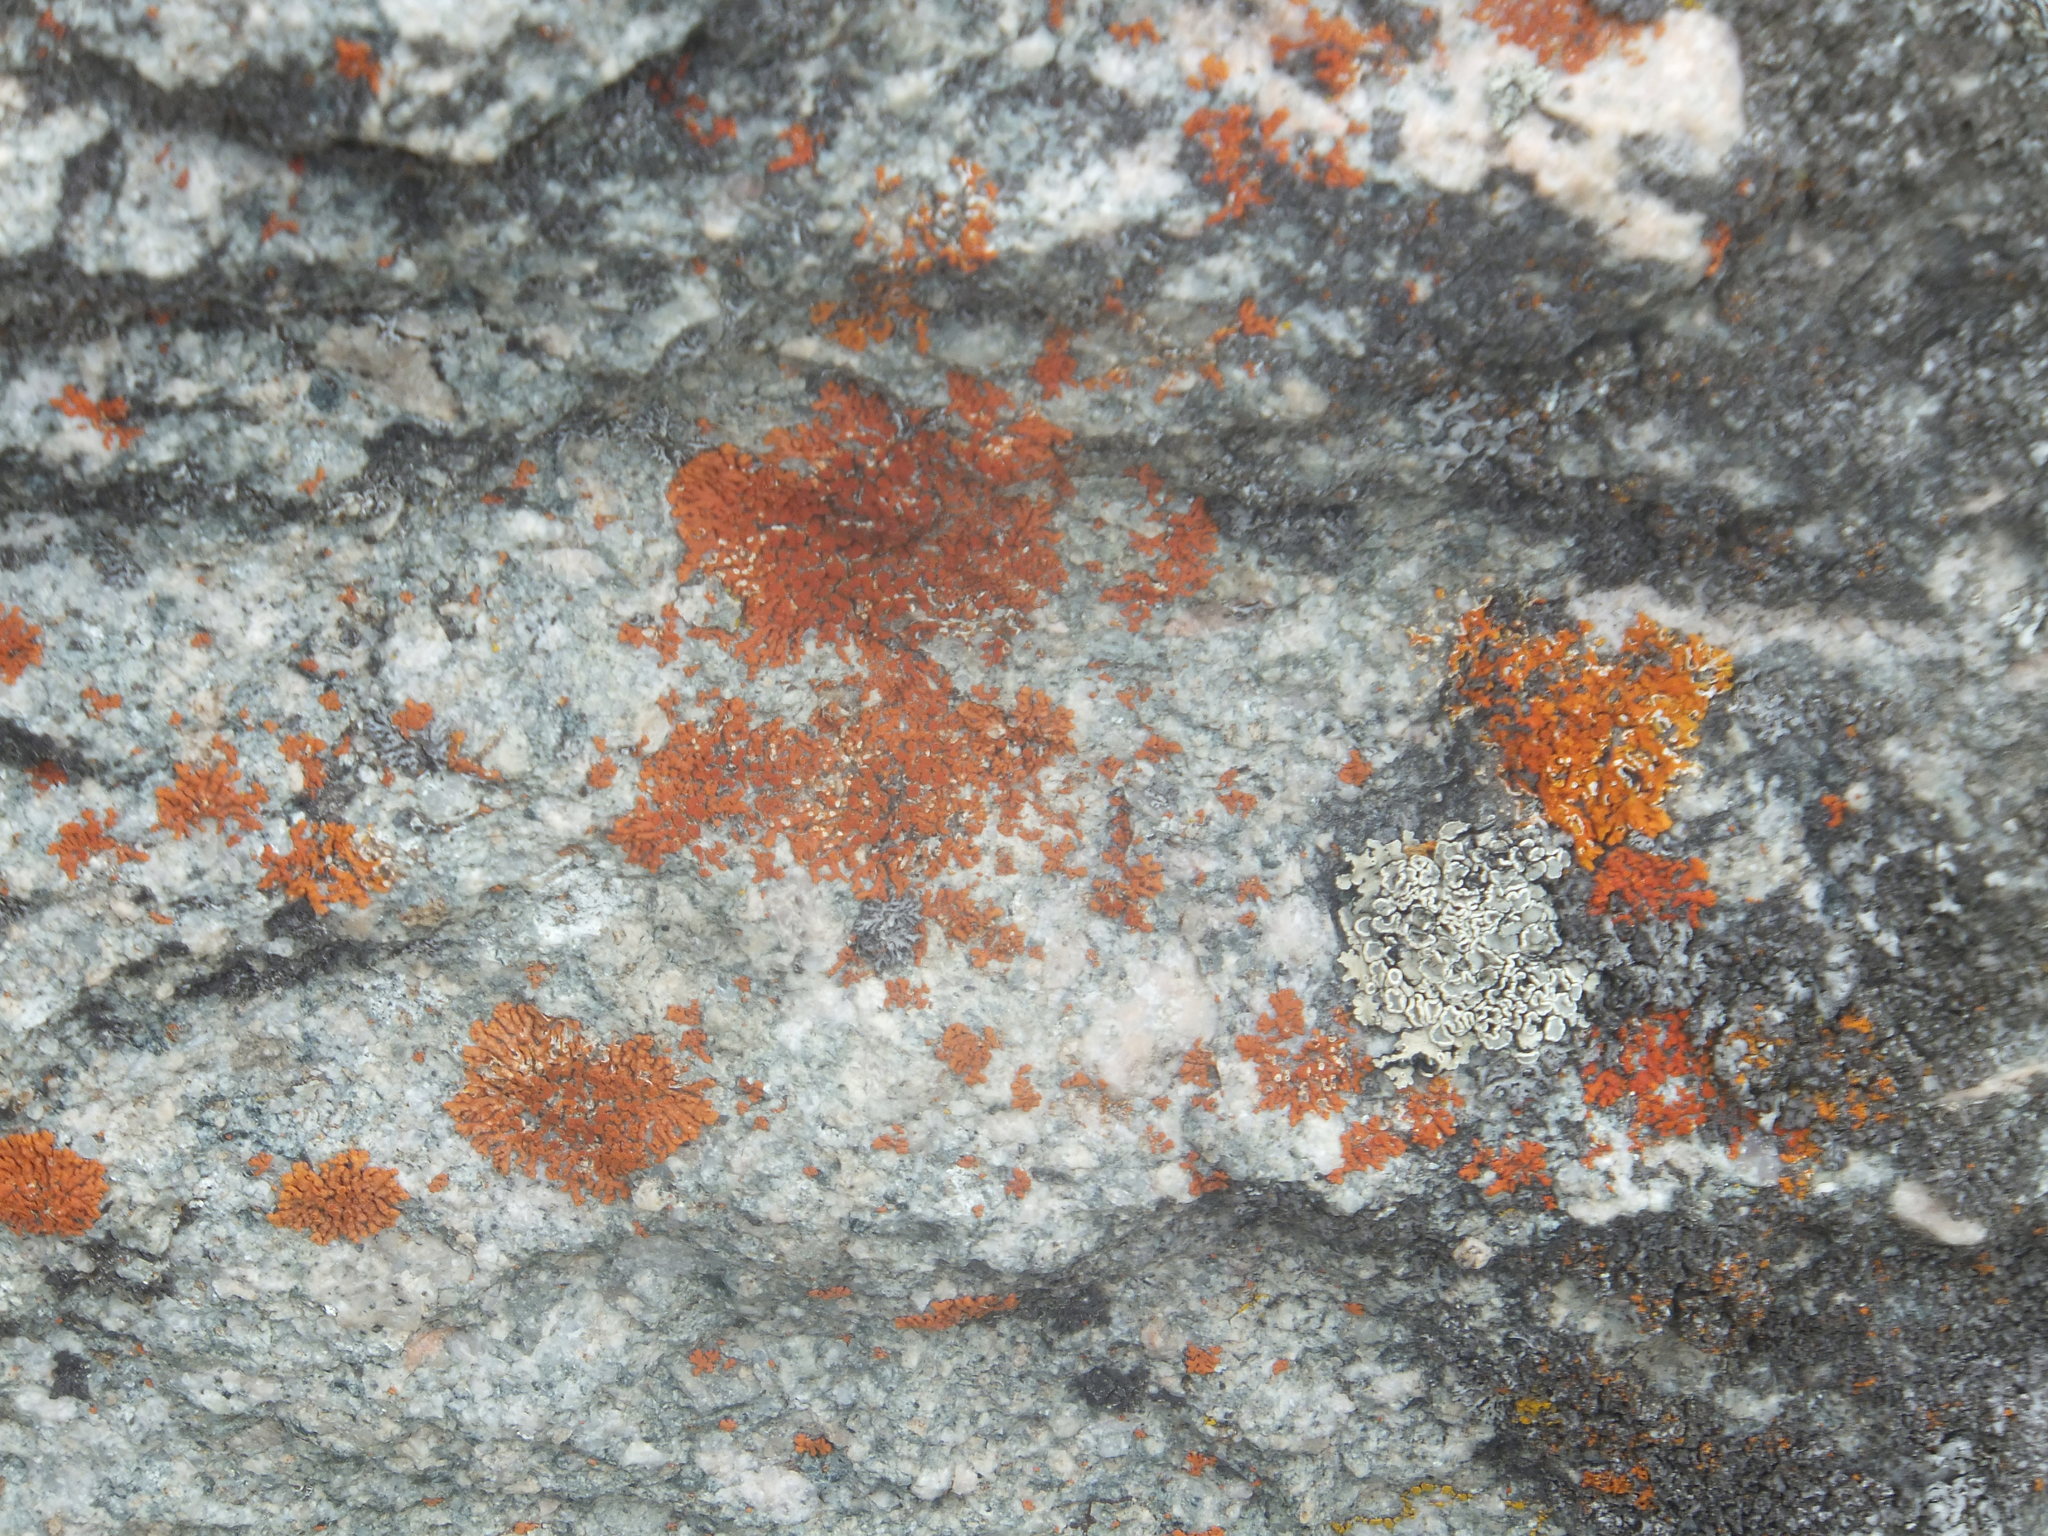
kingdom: Fungi
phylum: Ascomycota
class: Lecanoromycetes
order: Teloschistales
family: Teloschistaceae
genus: Xanthoria
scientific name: Xanthoria elegans
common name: Elegant sunburst lichen
